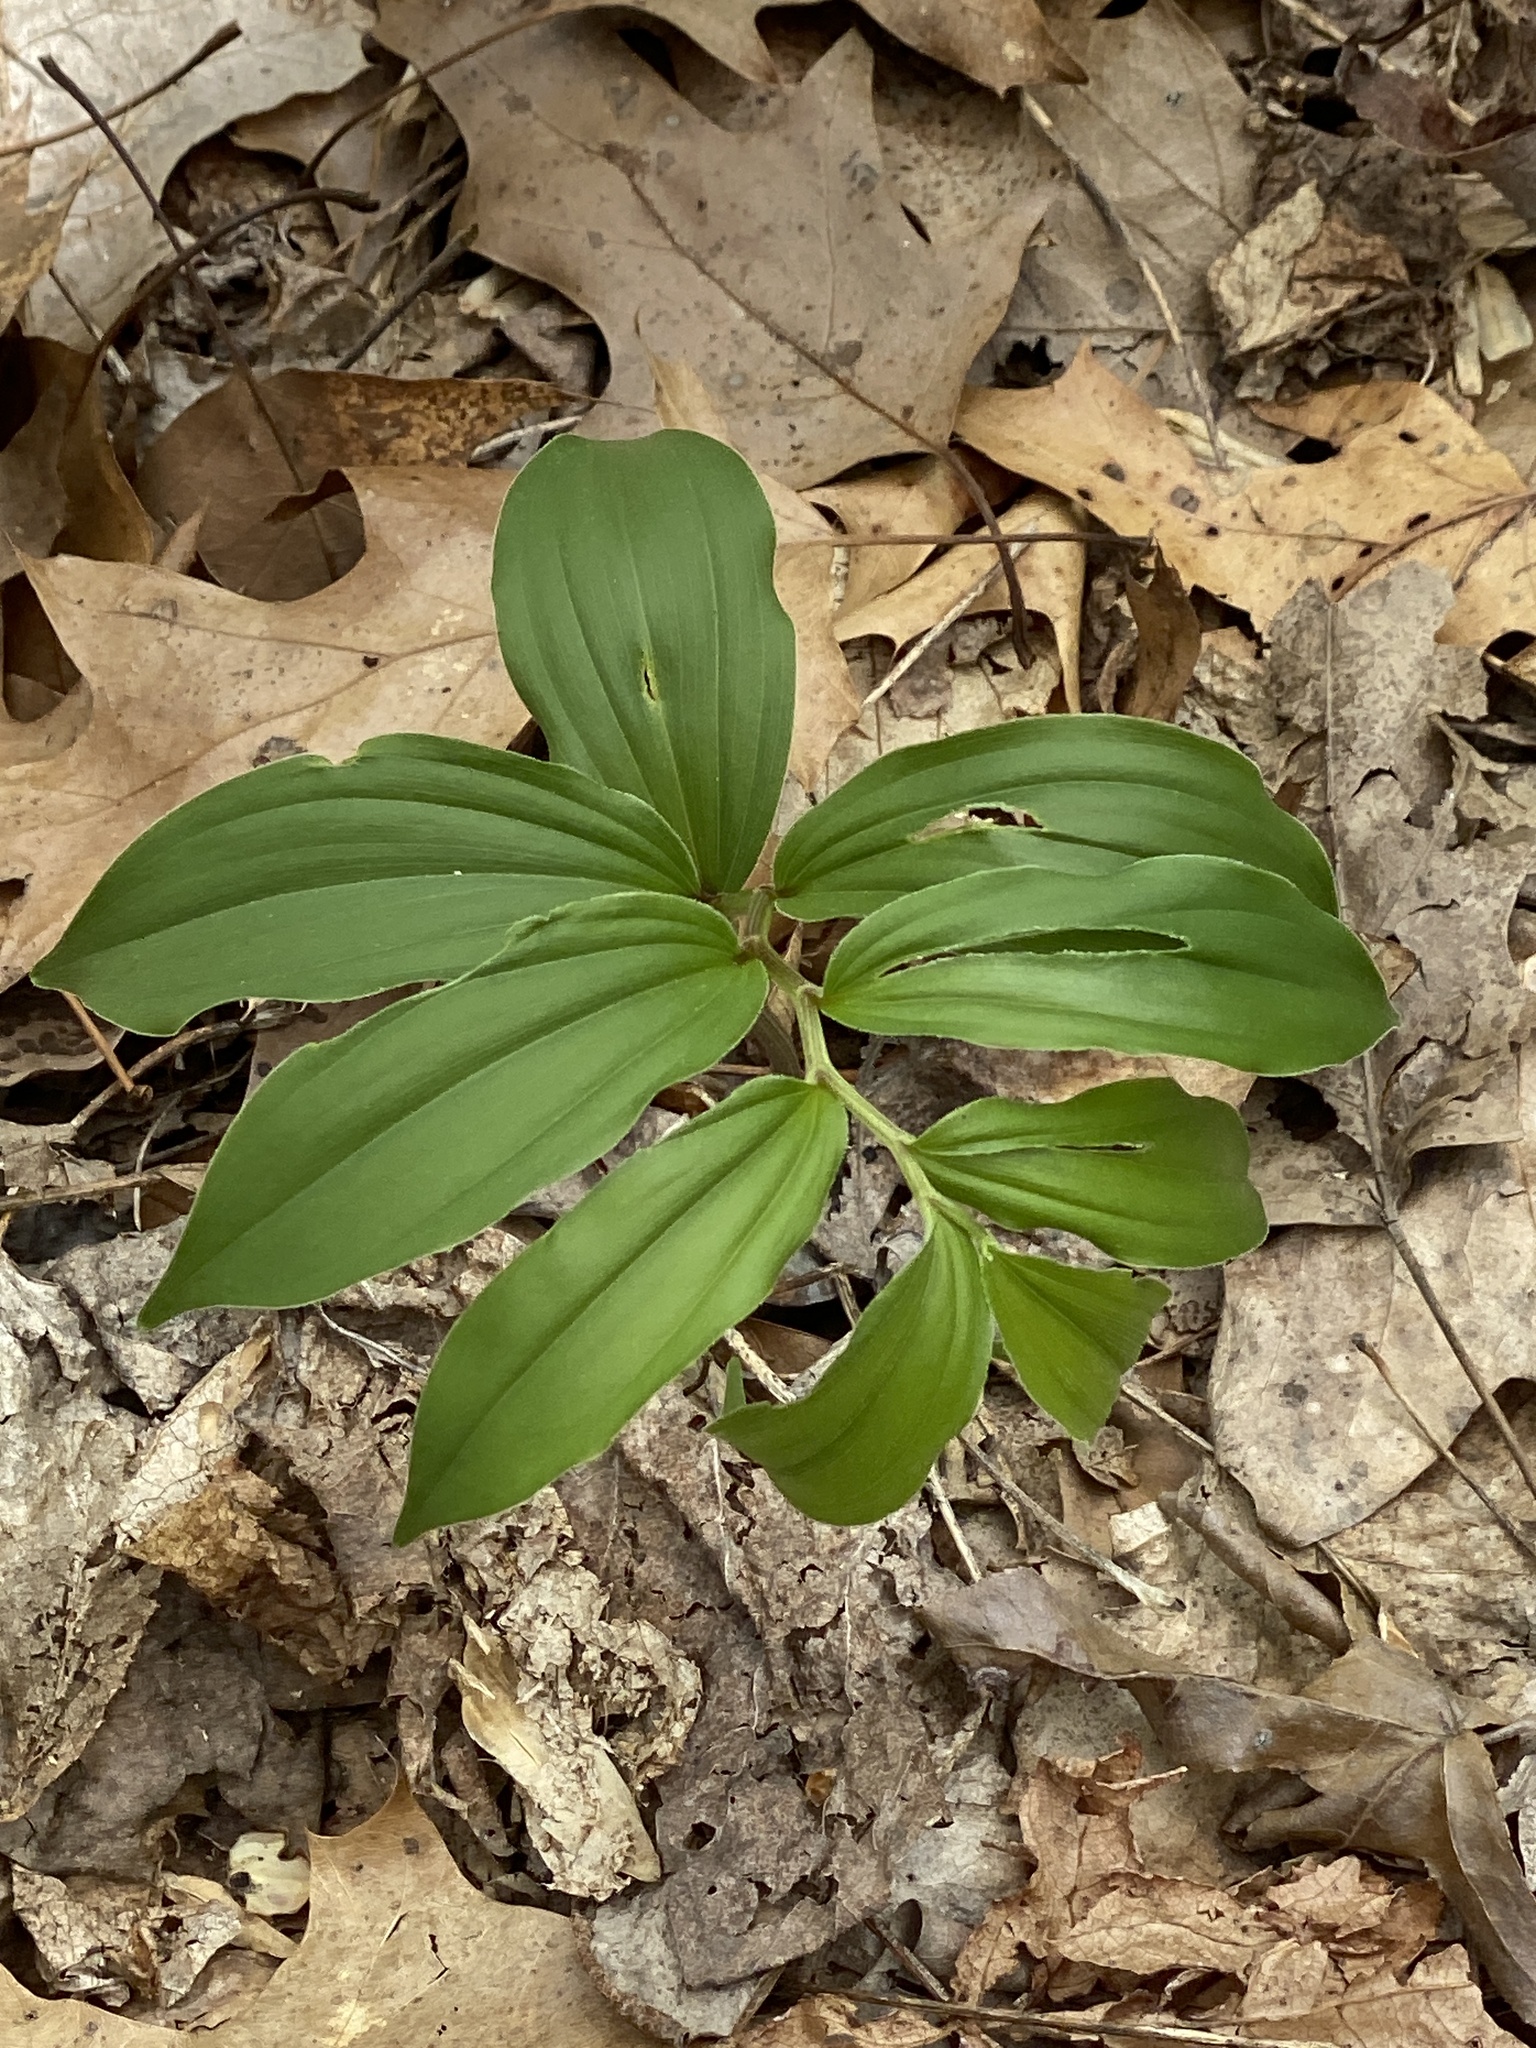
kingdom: Plantae
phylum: Tracheophyta
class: Liliopsida
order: Asparagales
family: Asparagaceae
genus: Maianthemum
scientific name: Maianthemum racemosum
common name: False spikenard
